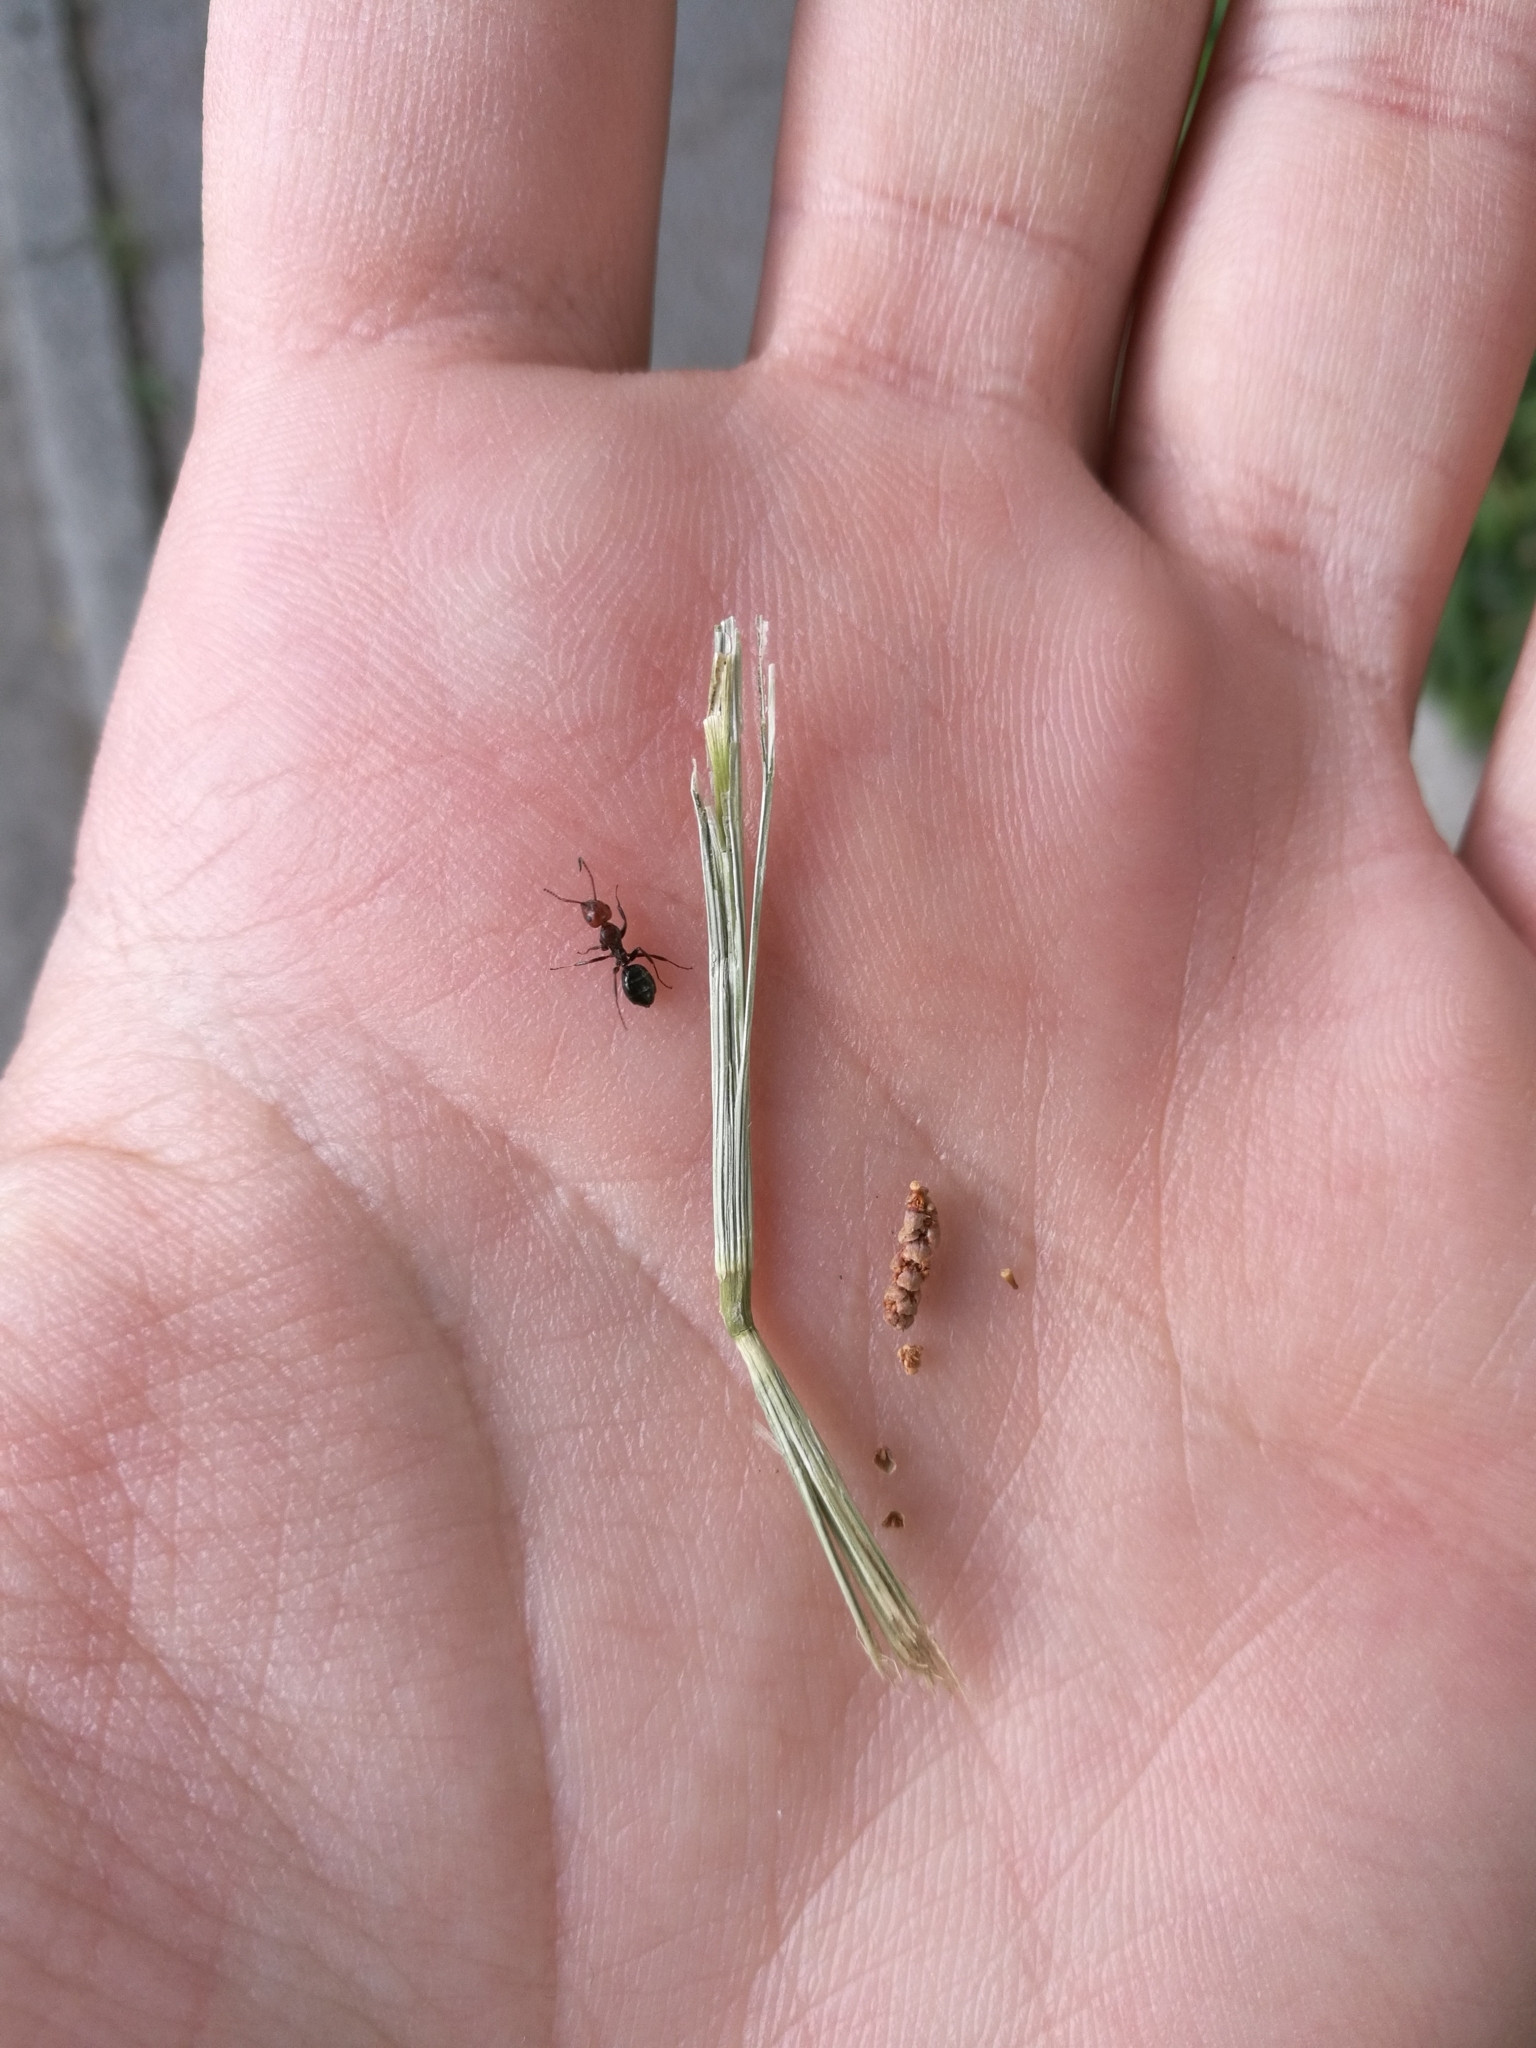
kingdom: Animalia
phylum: Arthropoda
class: Insecta
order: Hymenoptera
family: Formicidae
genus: Camponotus
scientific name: Camponotus lateralis
